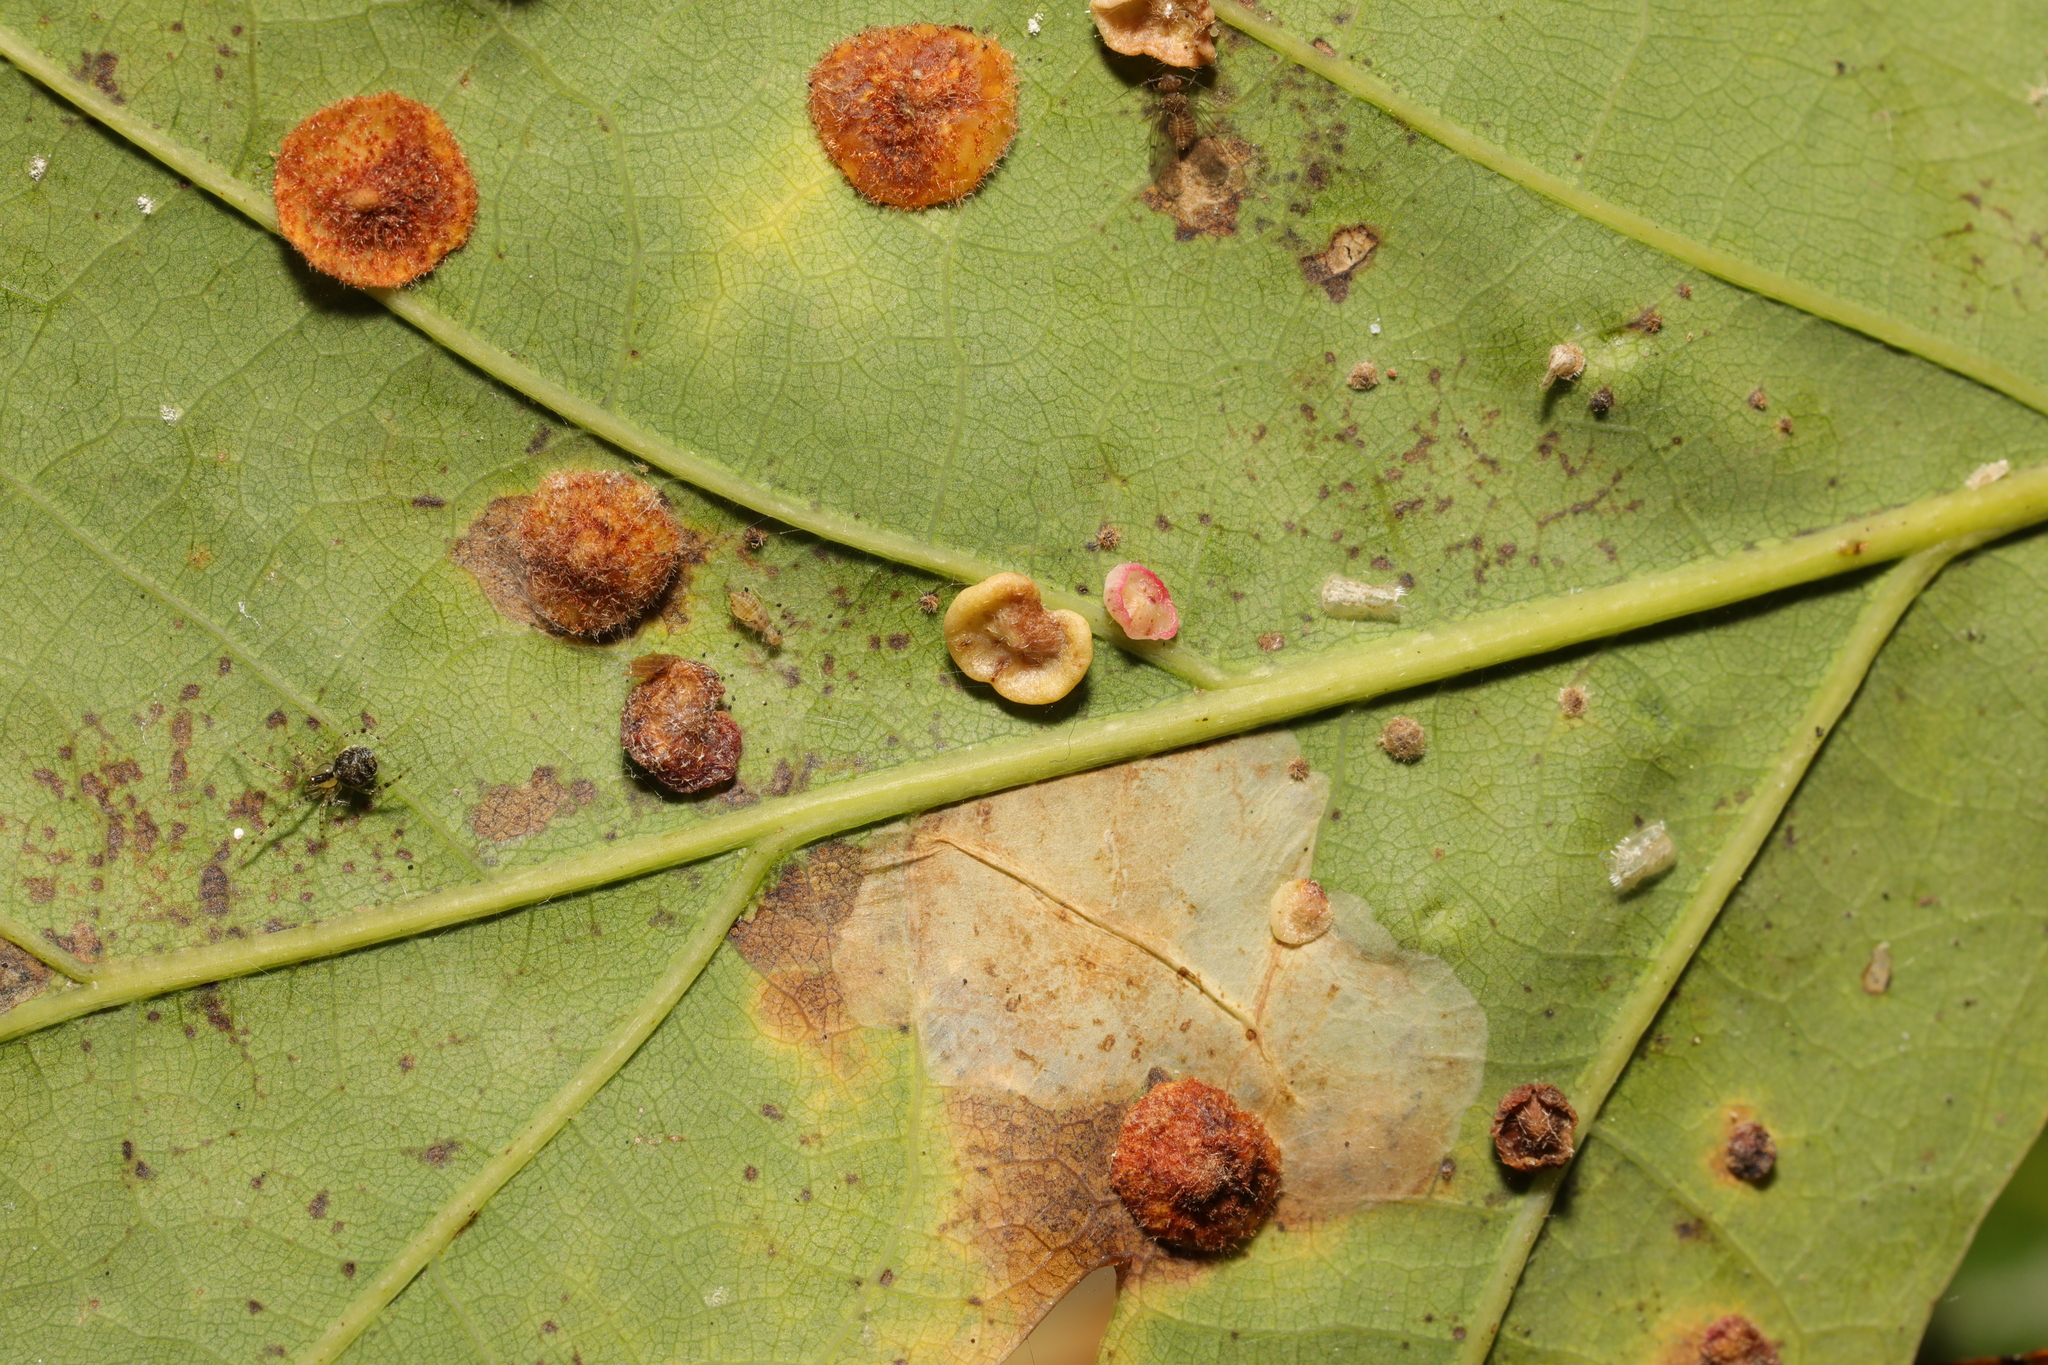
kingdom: Animalia
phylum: Arthropoda
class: Insecta
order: Hymenoptera
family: Cynipidae
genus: Neuroterus
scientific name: Neuroterus albipes
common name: Smooth spangle gall
